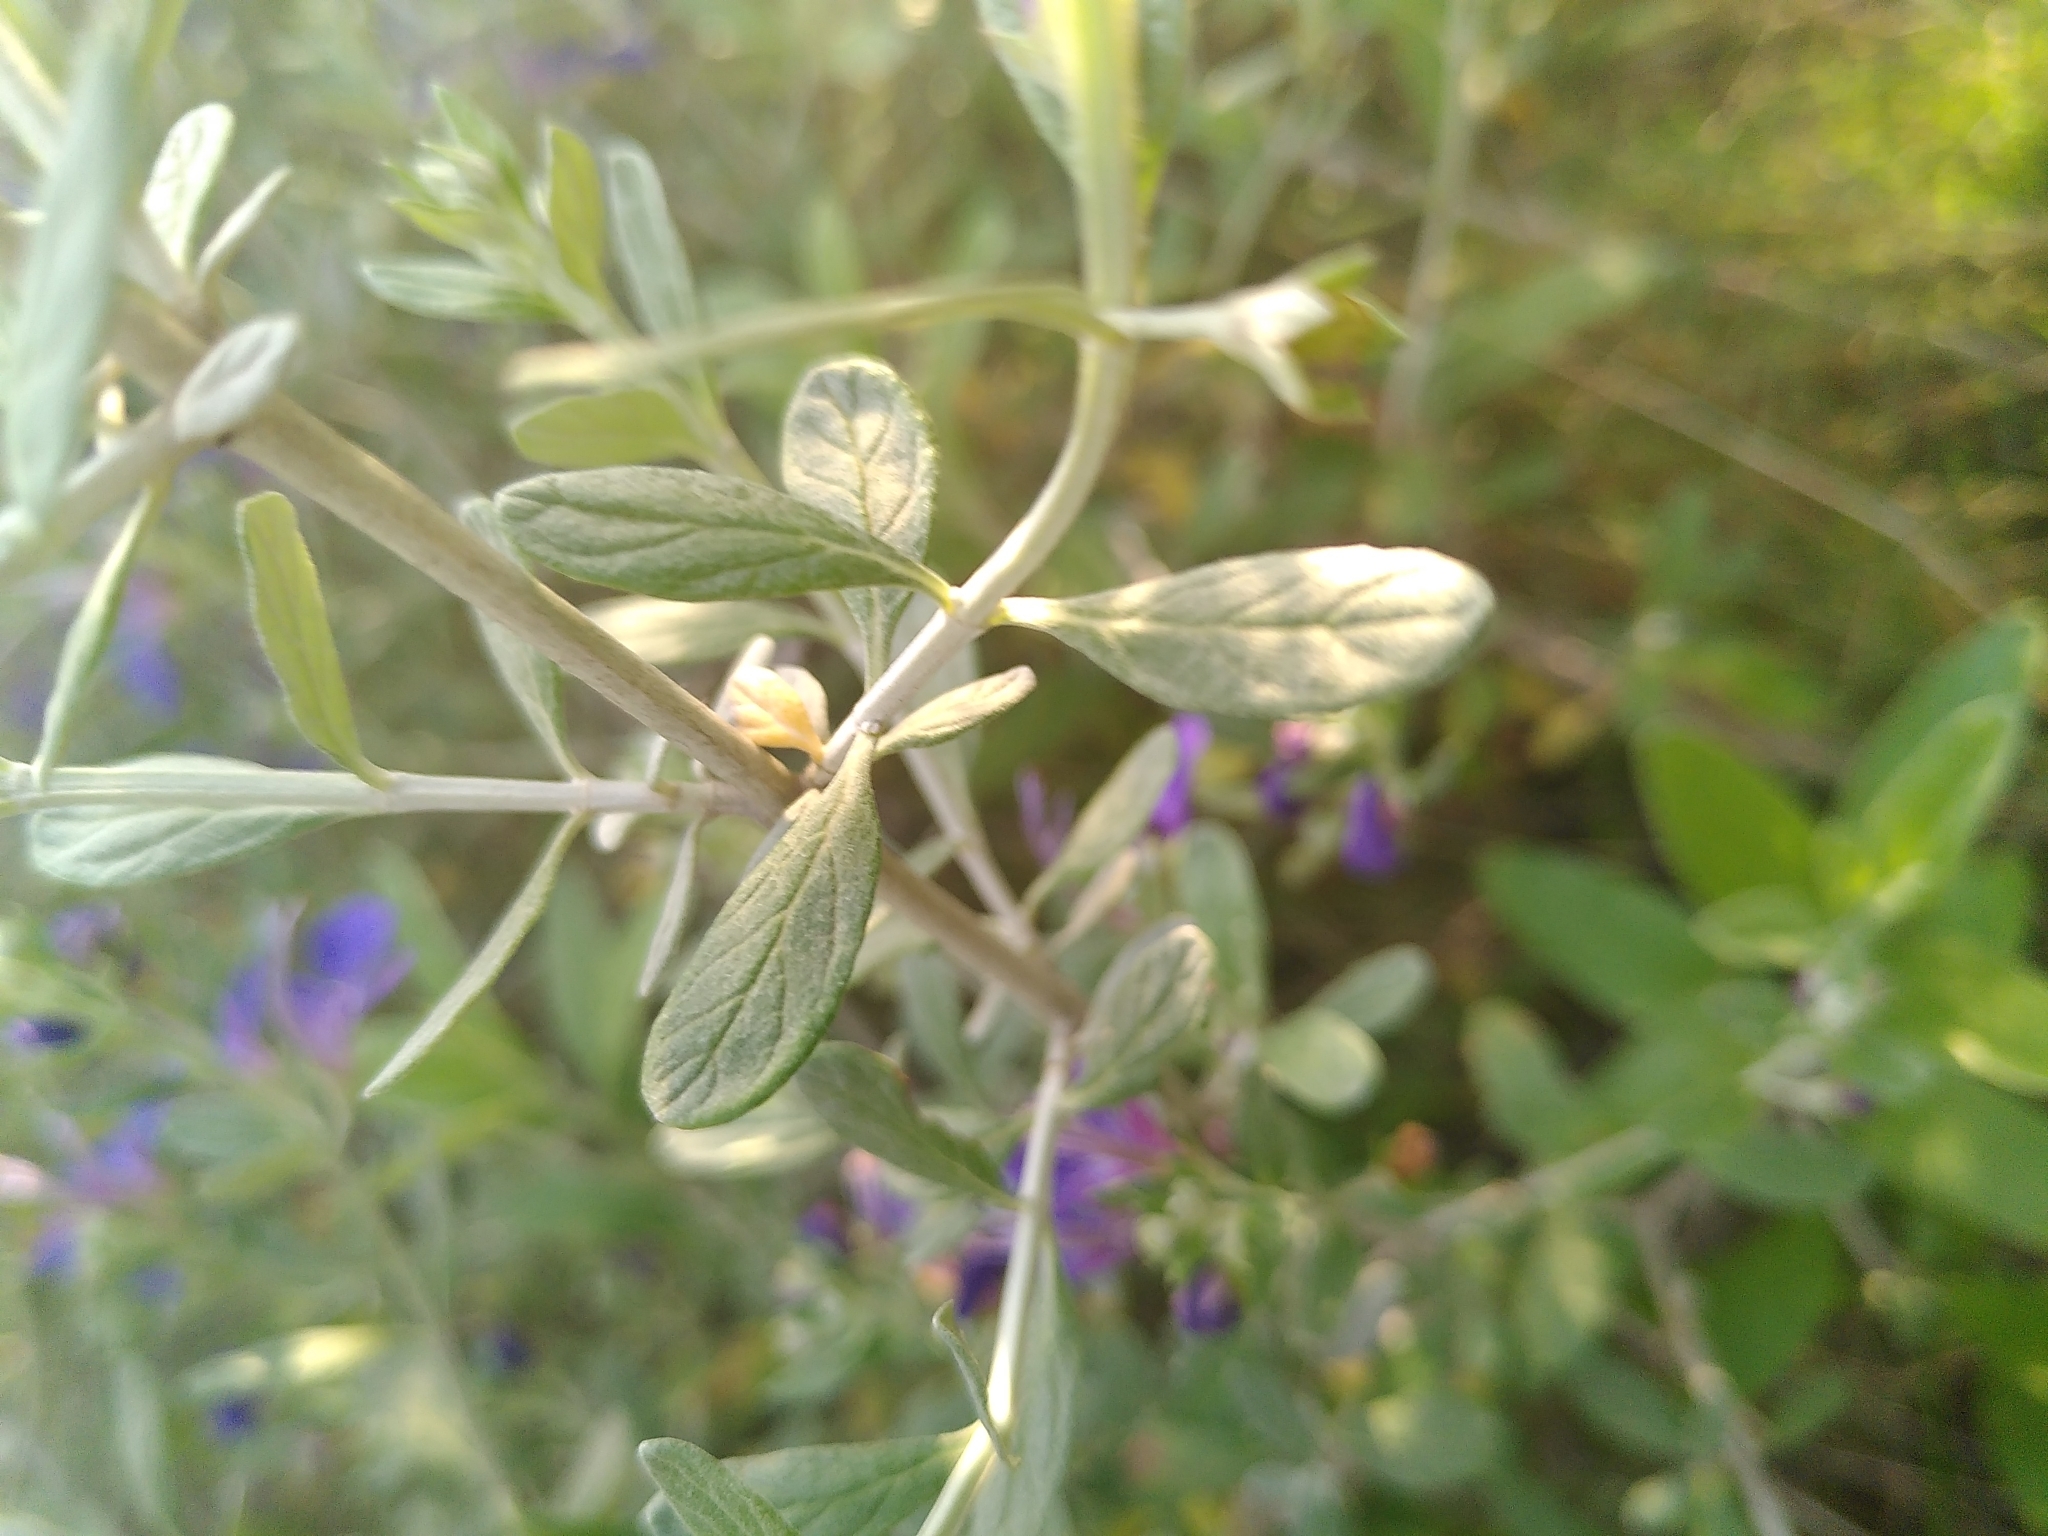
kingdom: Plantae
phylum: Tracheophyta
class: Magnoliopsida
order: Lamiales
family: Lamiaceae
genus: Teucrium
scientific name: Teucrium fruticans
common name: Shrubby germander
